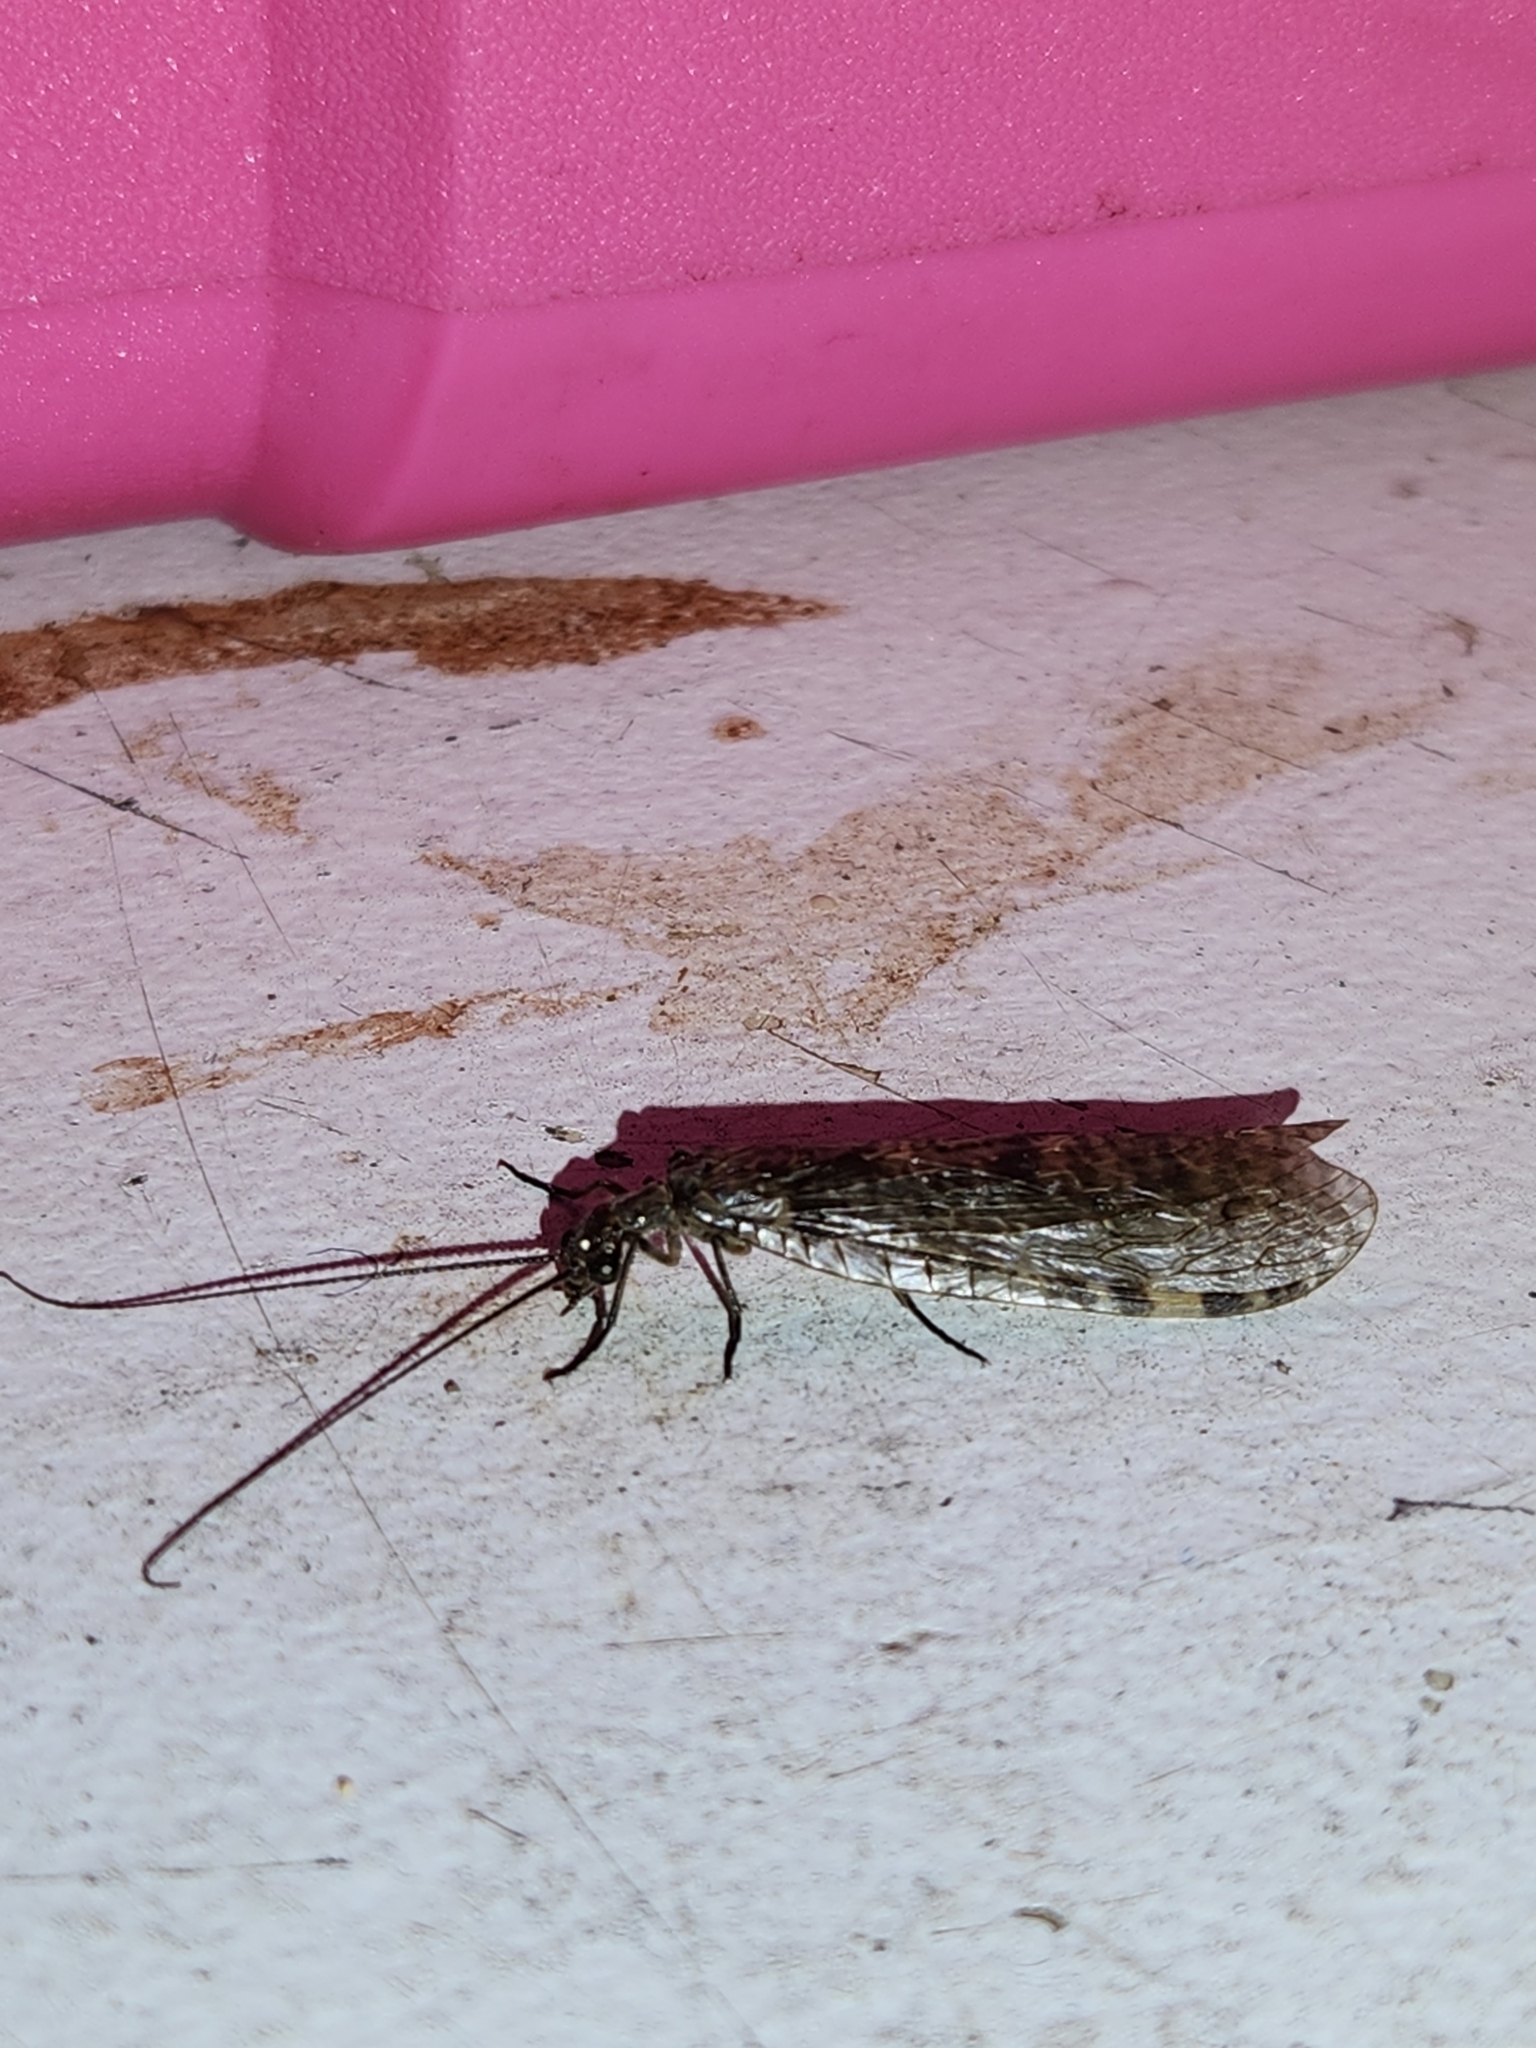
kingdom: Animalia
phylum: Arthropoda
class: Insecta
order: Megaloptera
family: Corydalidae
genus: Archichauliodes
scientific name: Archichauliodes diversus
